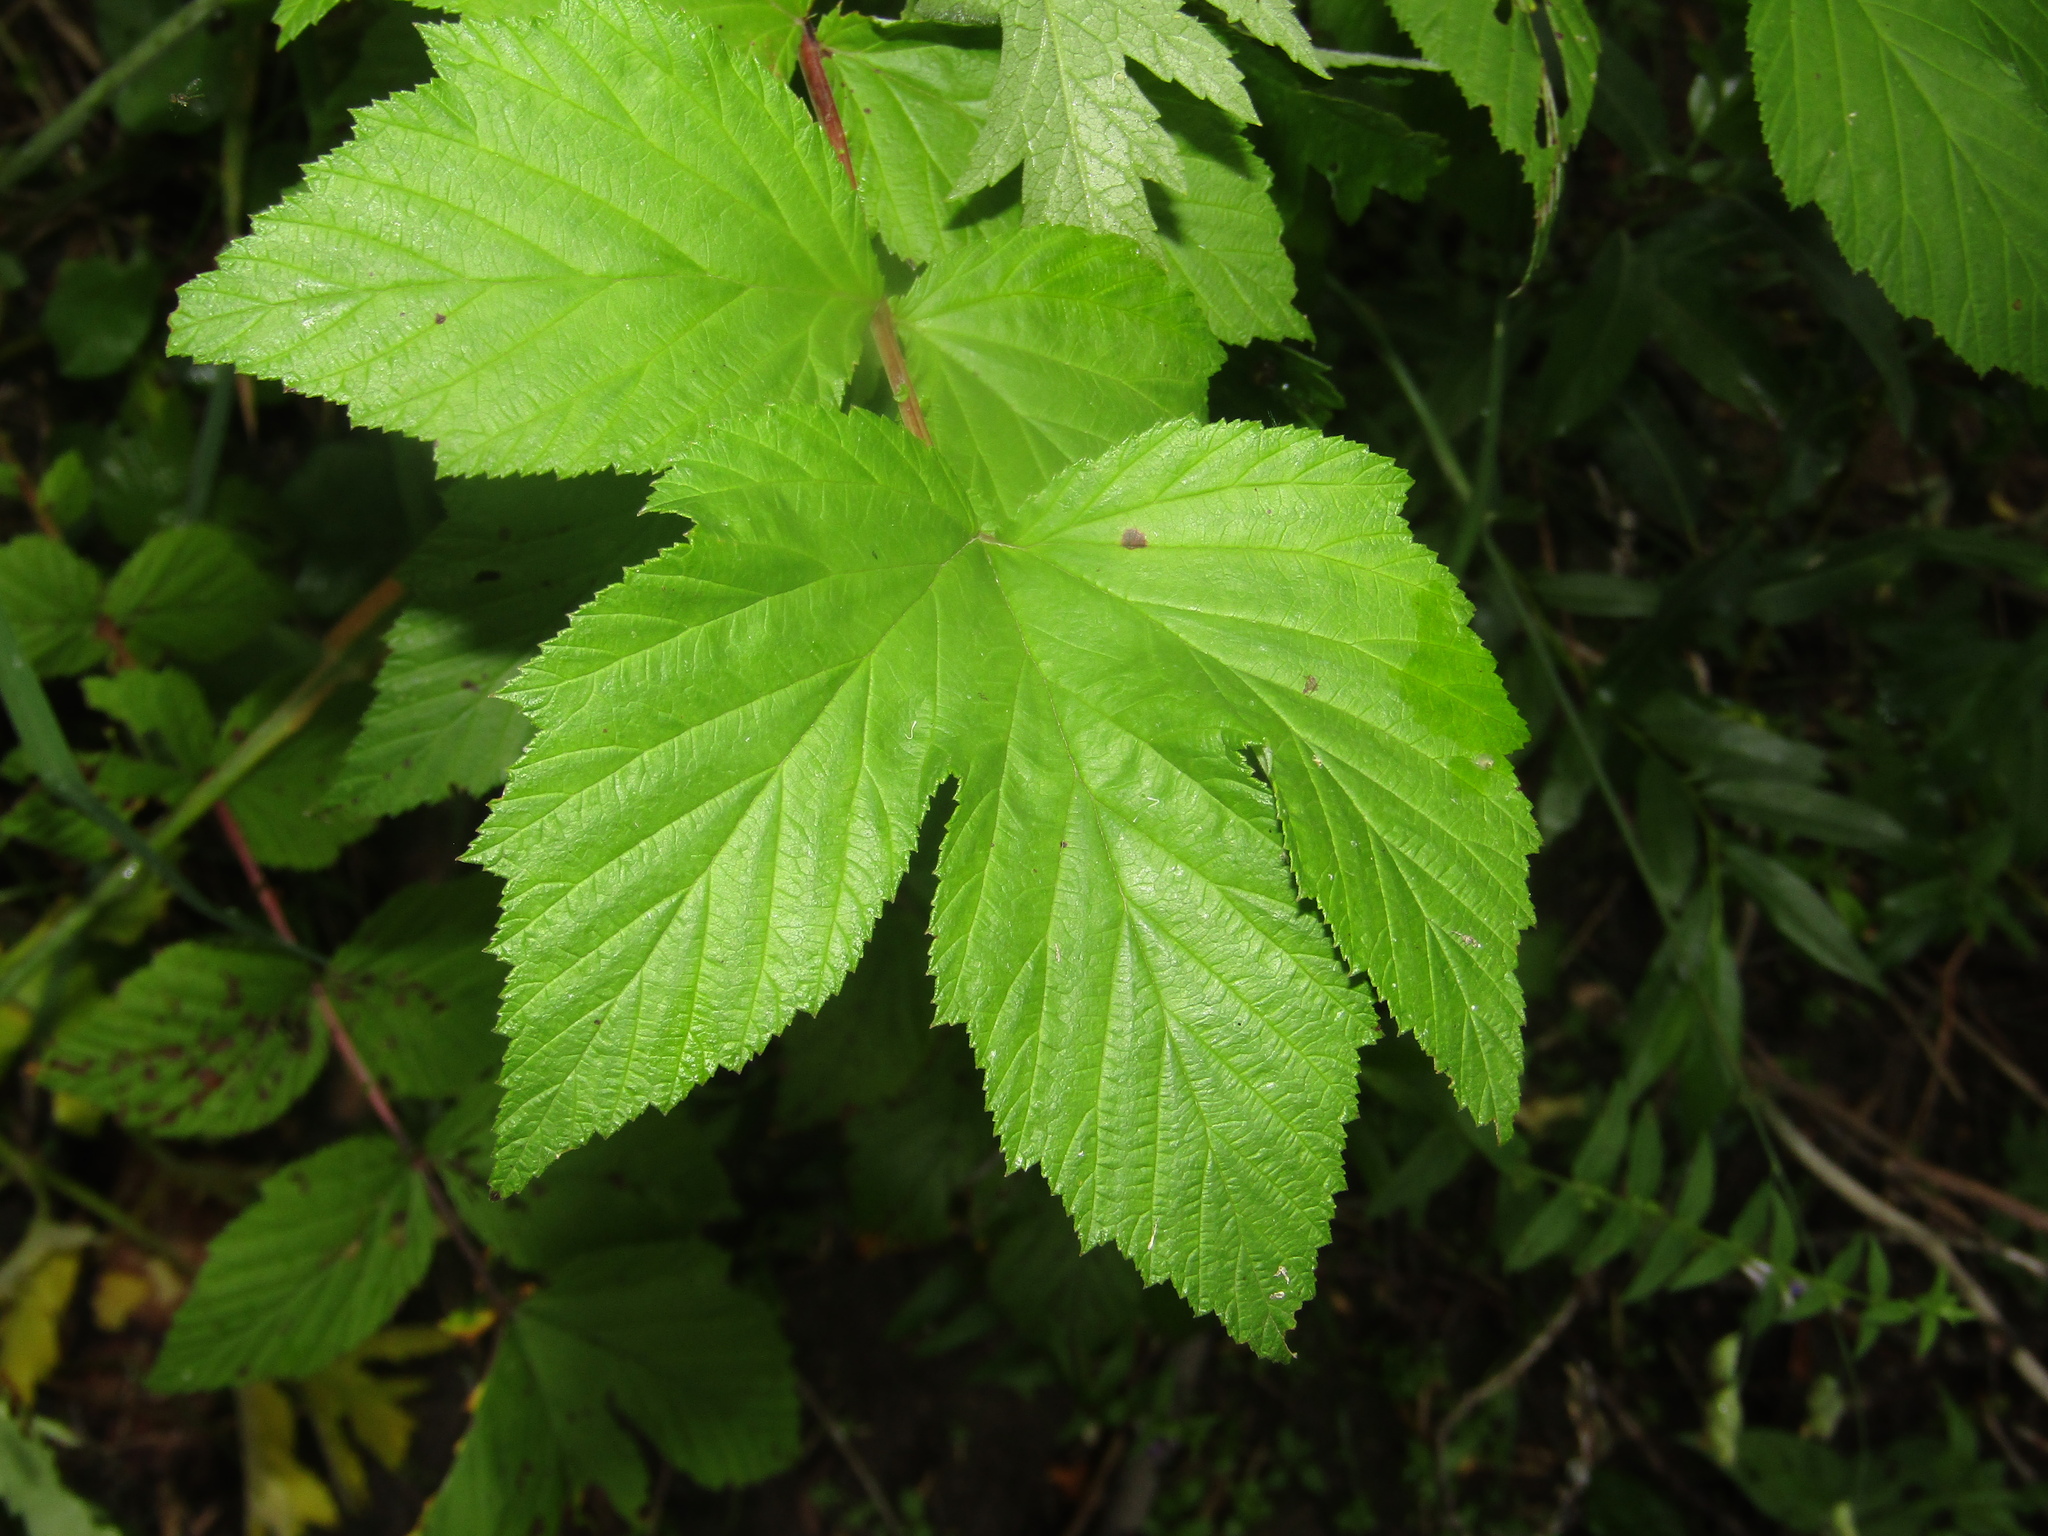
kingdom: Plantae
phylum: Tracheophyta
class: Magnoliopsida
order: Rosales
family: Rosaceae
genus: Filipendula
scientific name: Filipendula ulmaria
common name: Meadowsweet
